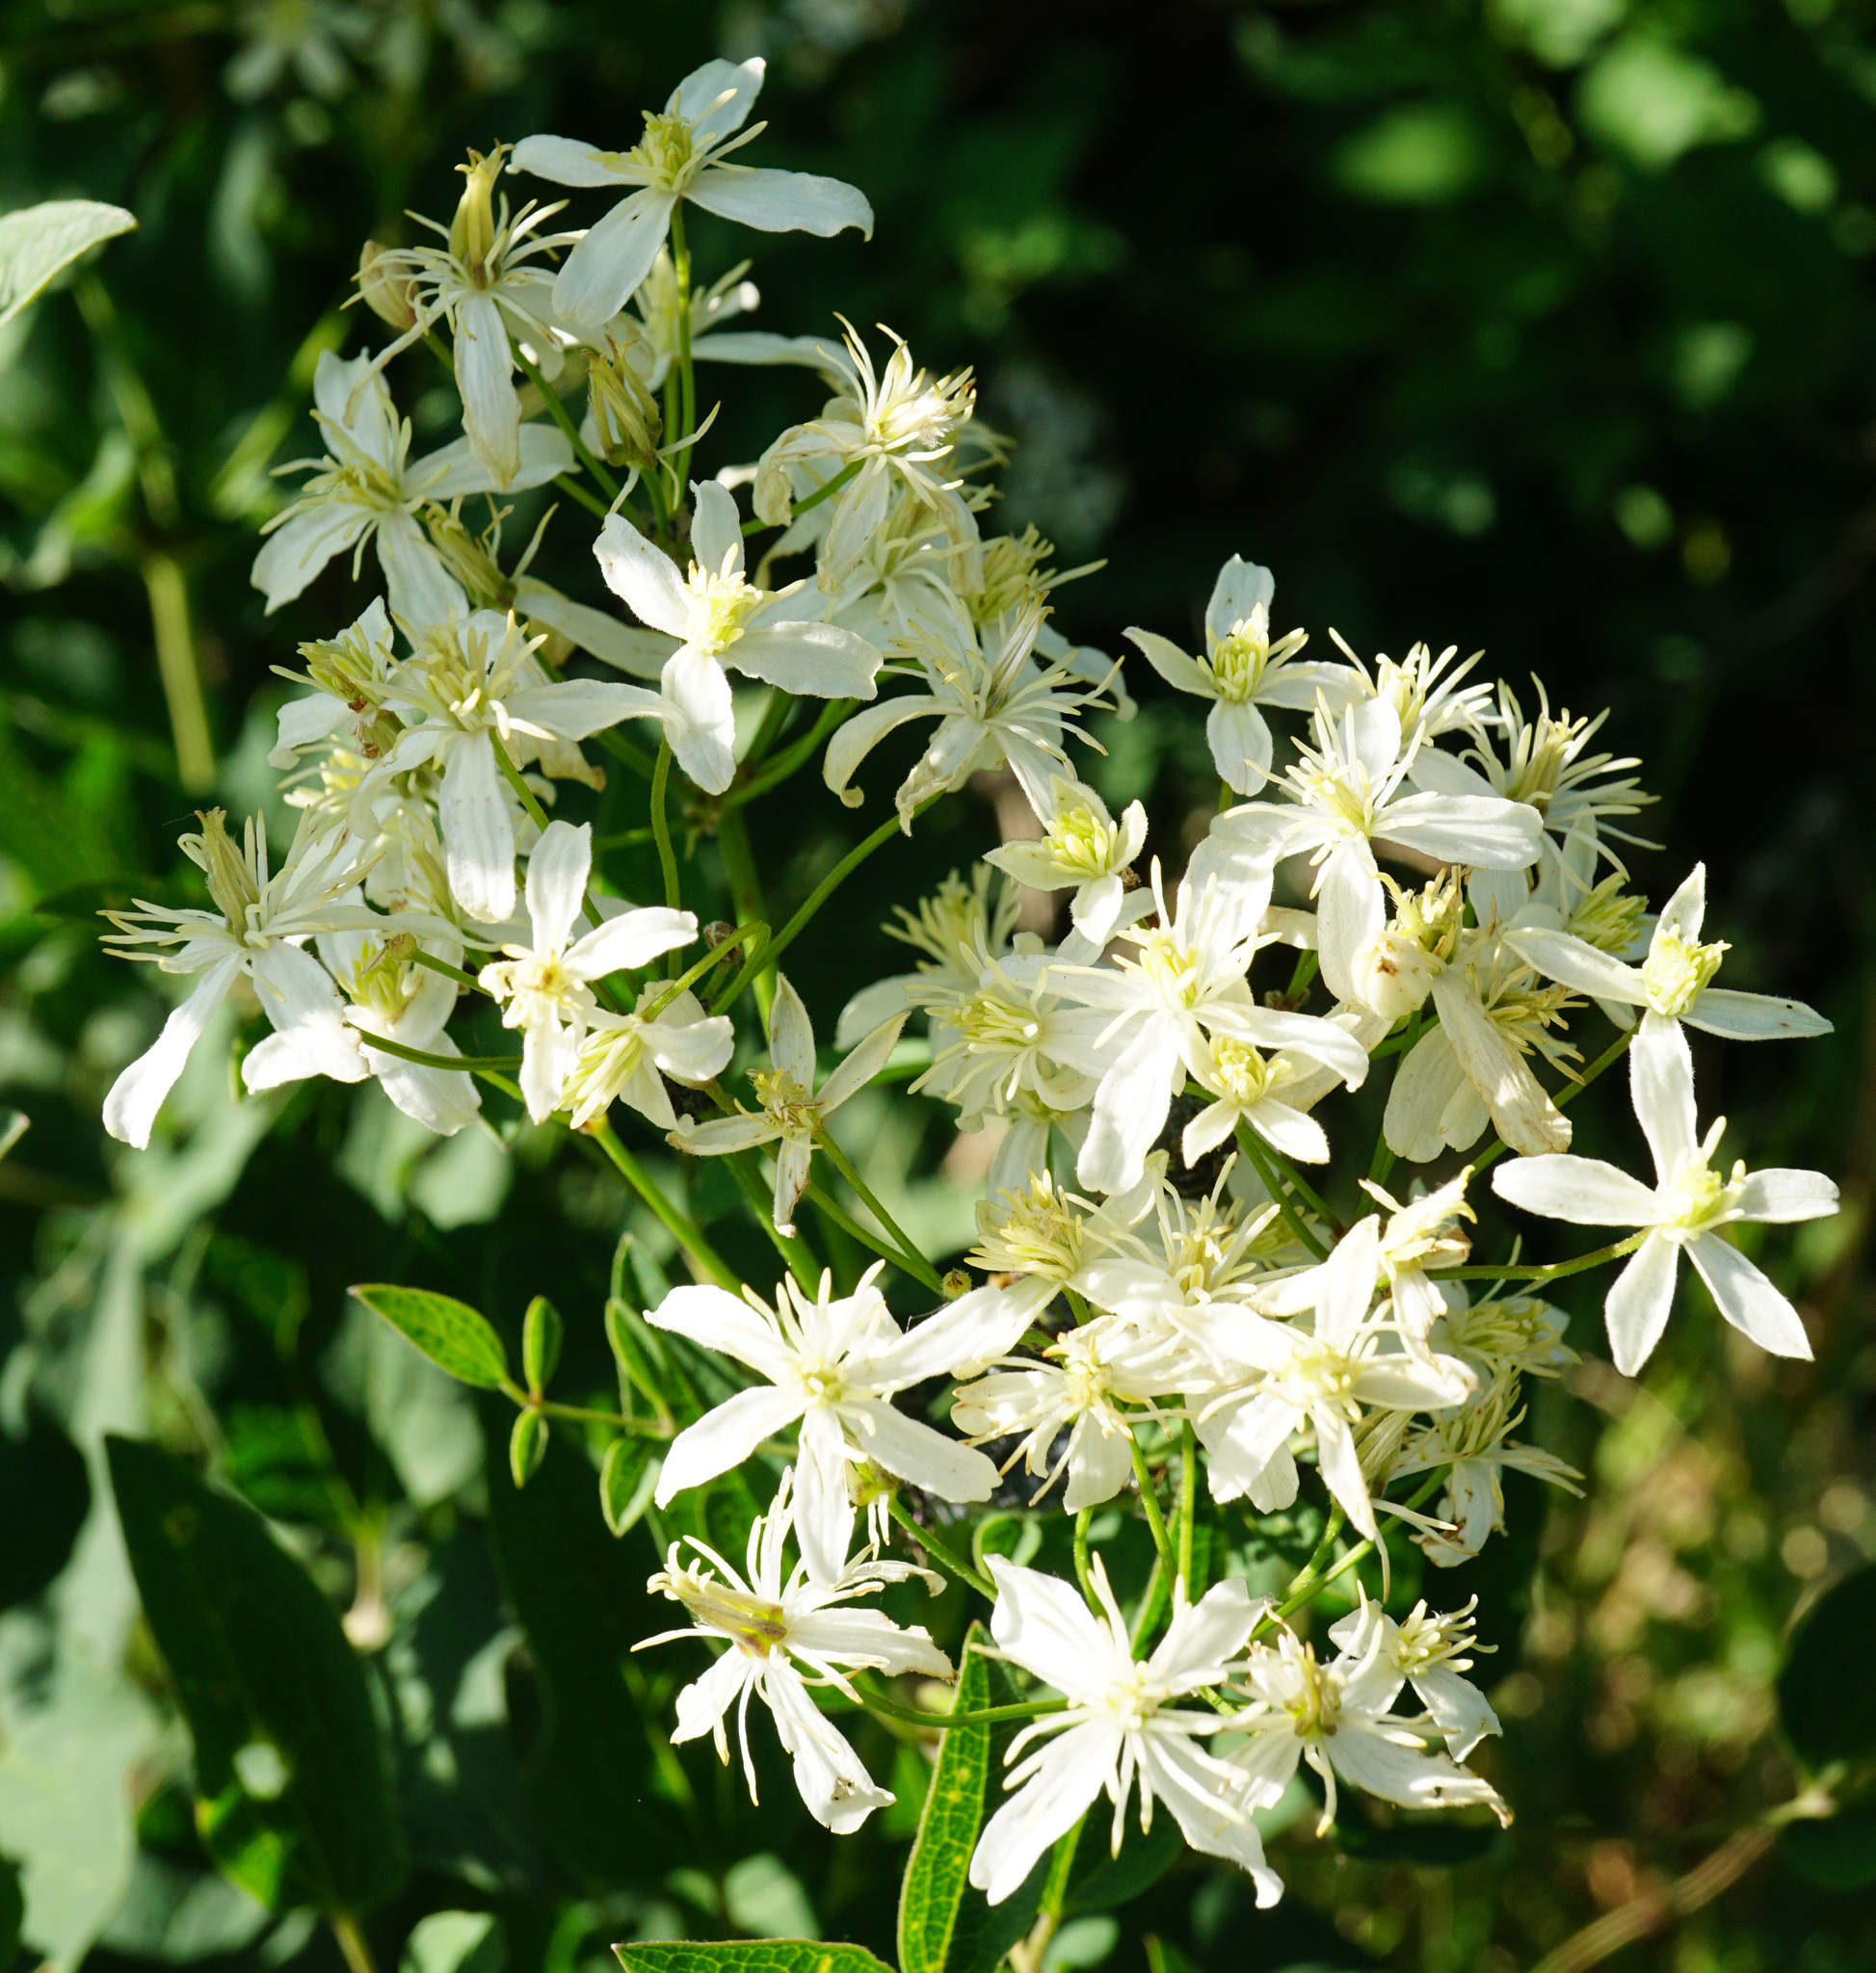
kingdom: Plantae
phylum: Tracheophyta
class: Magnoliopsida
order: Ranunculales
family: Ranunculaceae
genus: Clematis
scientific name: Clematis recta
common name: Ground clematis
